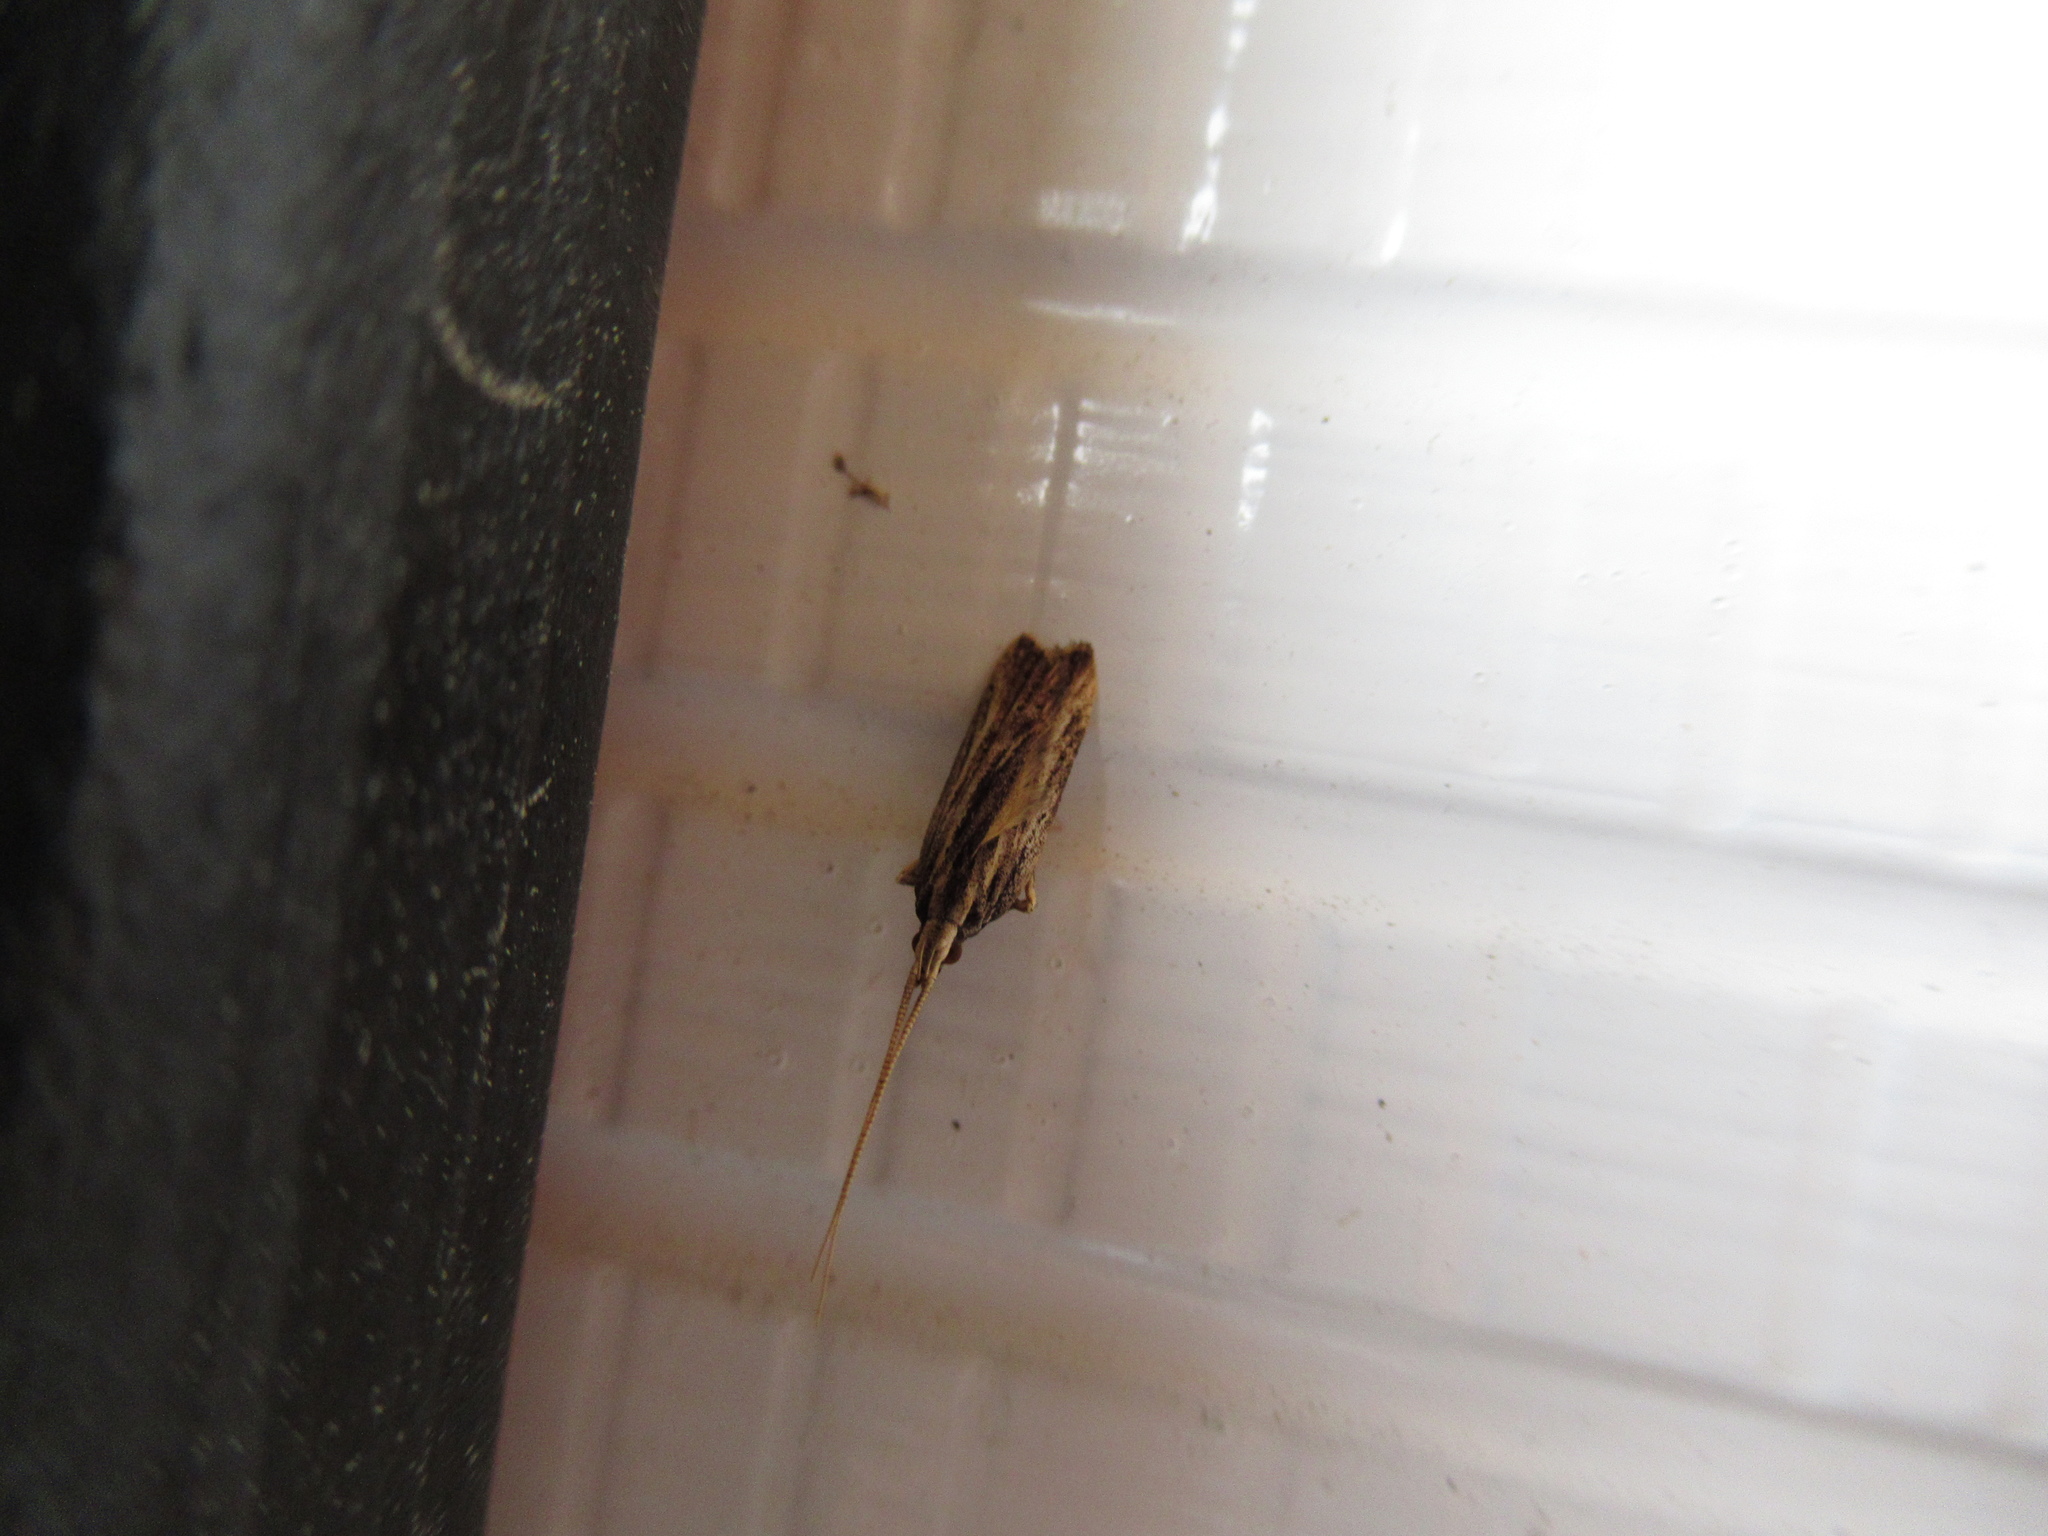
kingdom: Animalia
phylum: Arthropoda
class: Insecta
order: Lepidoptera
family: Lecithoceridae
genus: Sarisophora
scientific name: Sarisophora leucoscia
